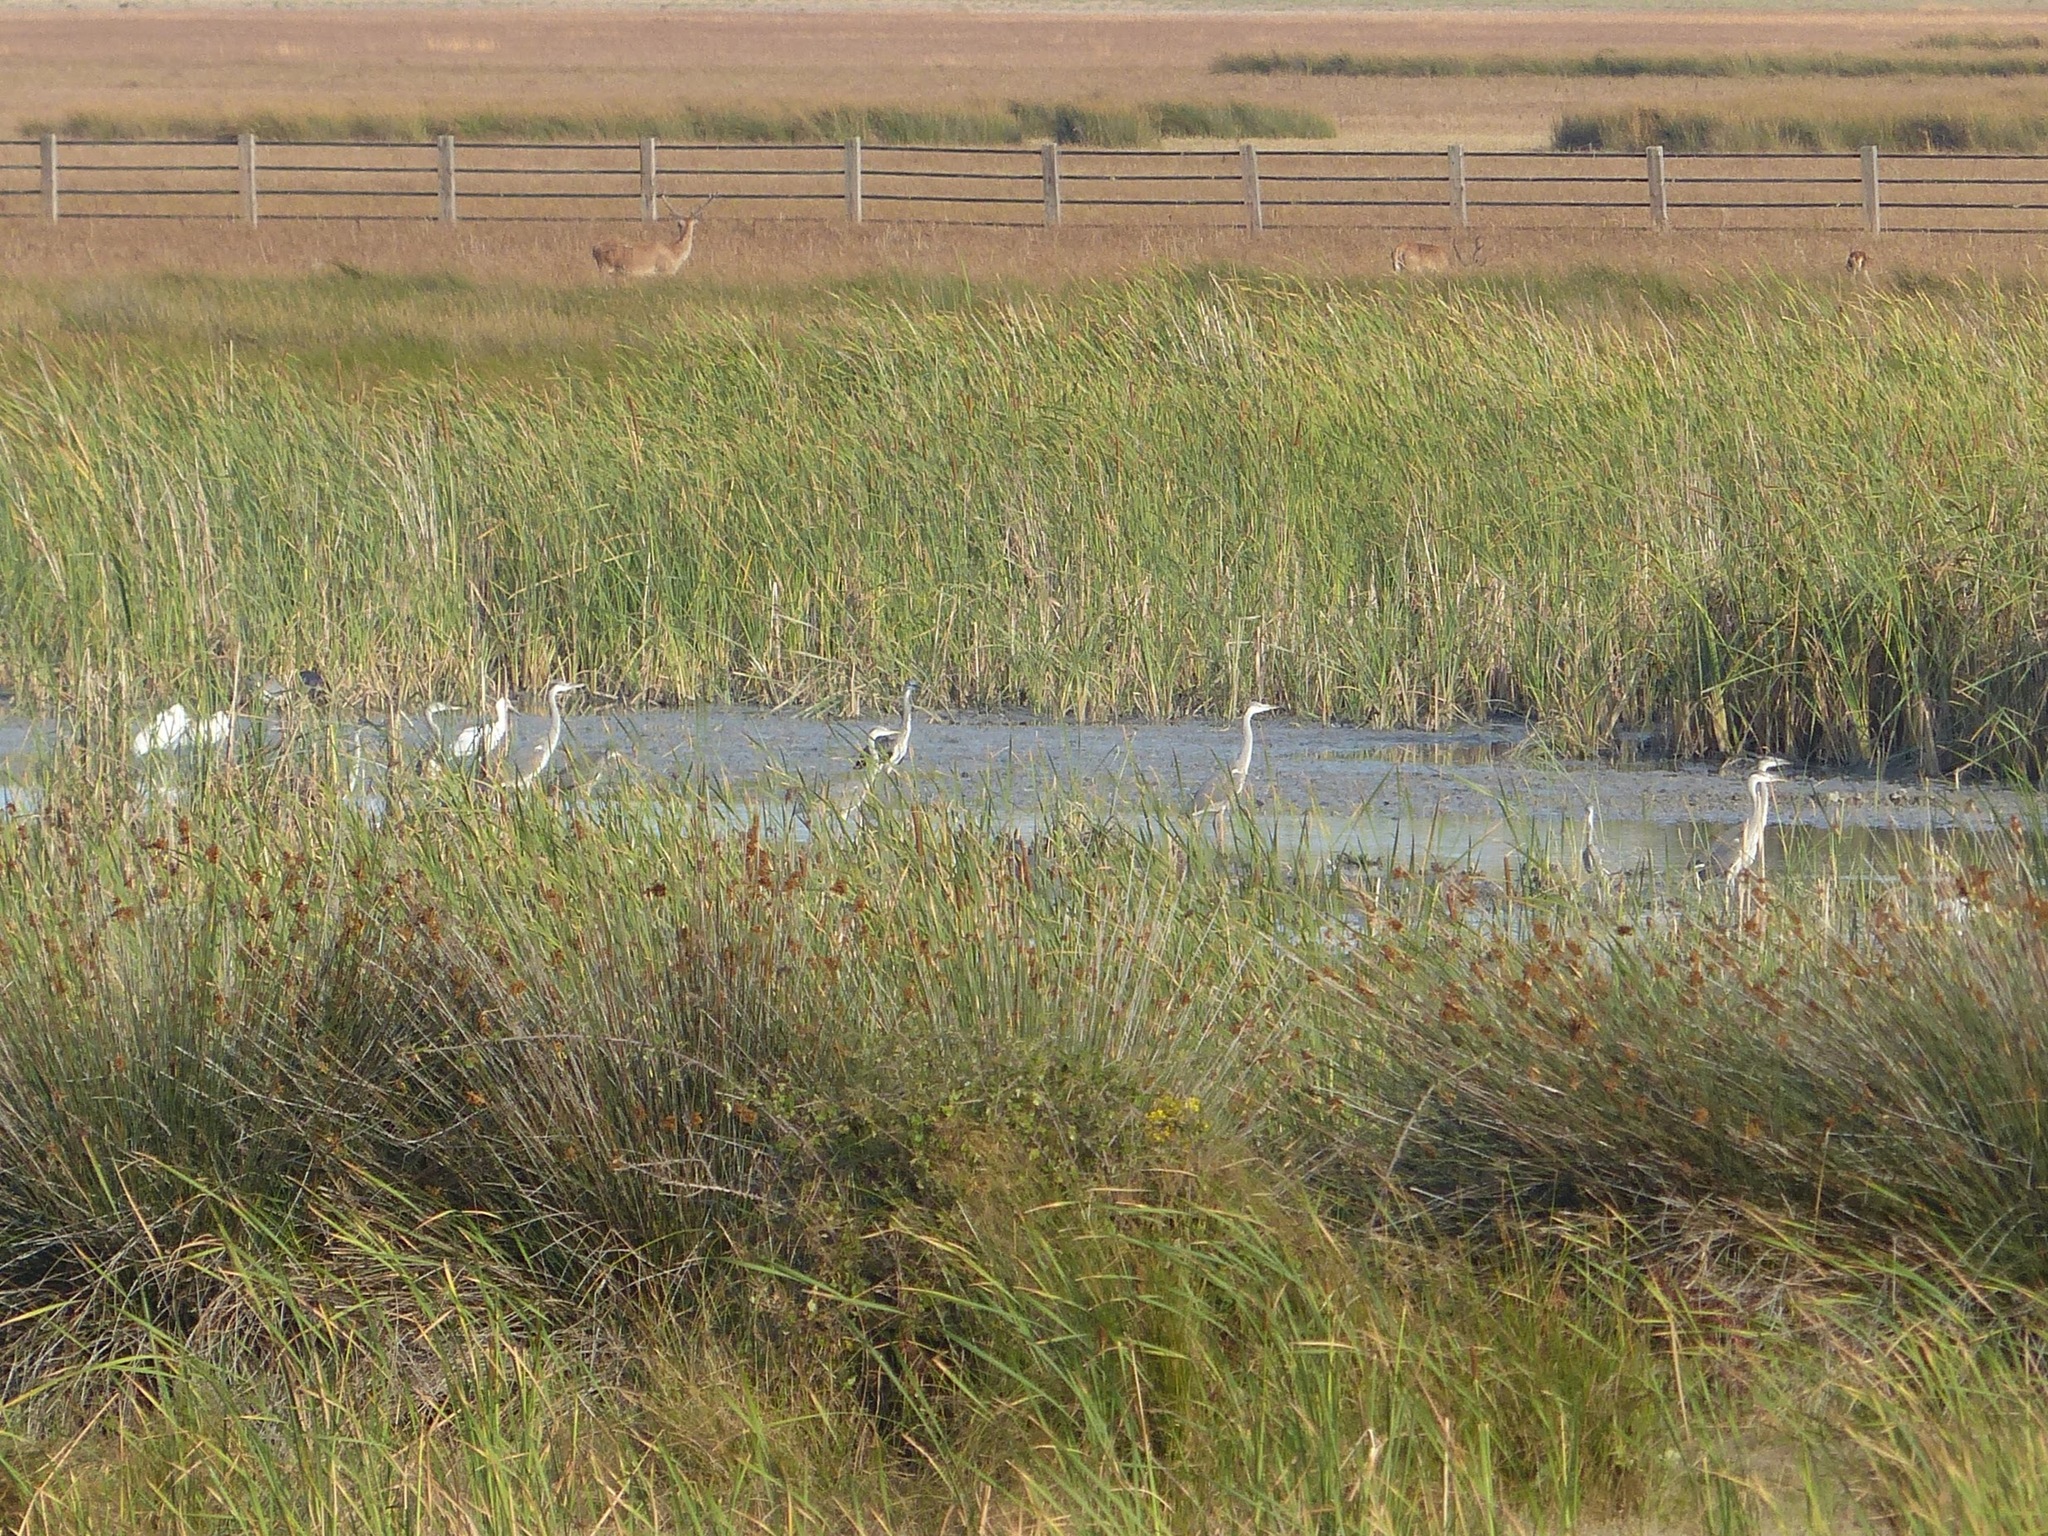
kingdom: Animalia
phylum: Chordata
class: Aves
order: Pelecaniformes
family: Ardeidae
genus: Ardea
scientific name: Ardea cinerea
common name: Grey heron
